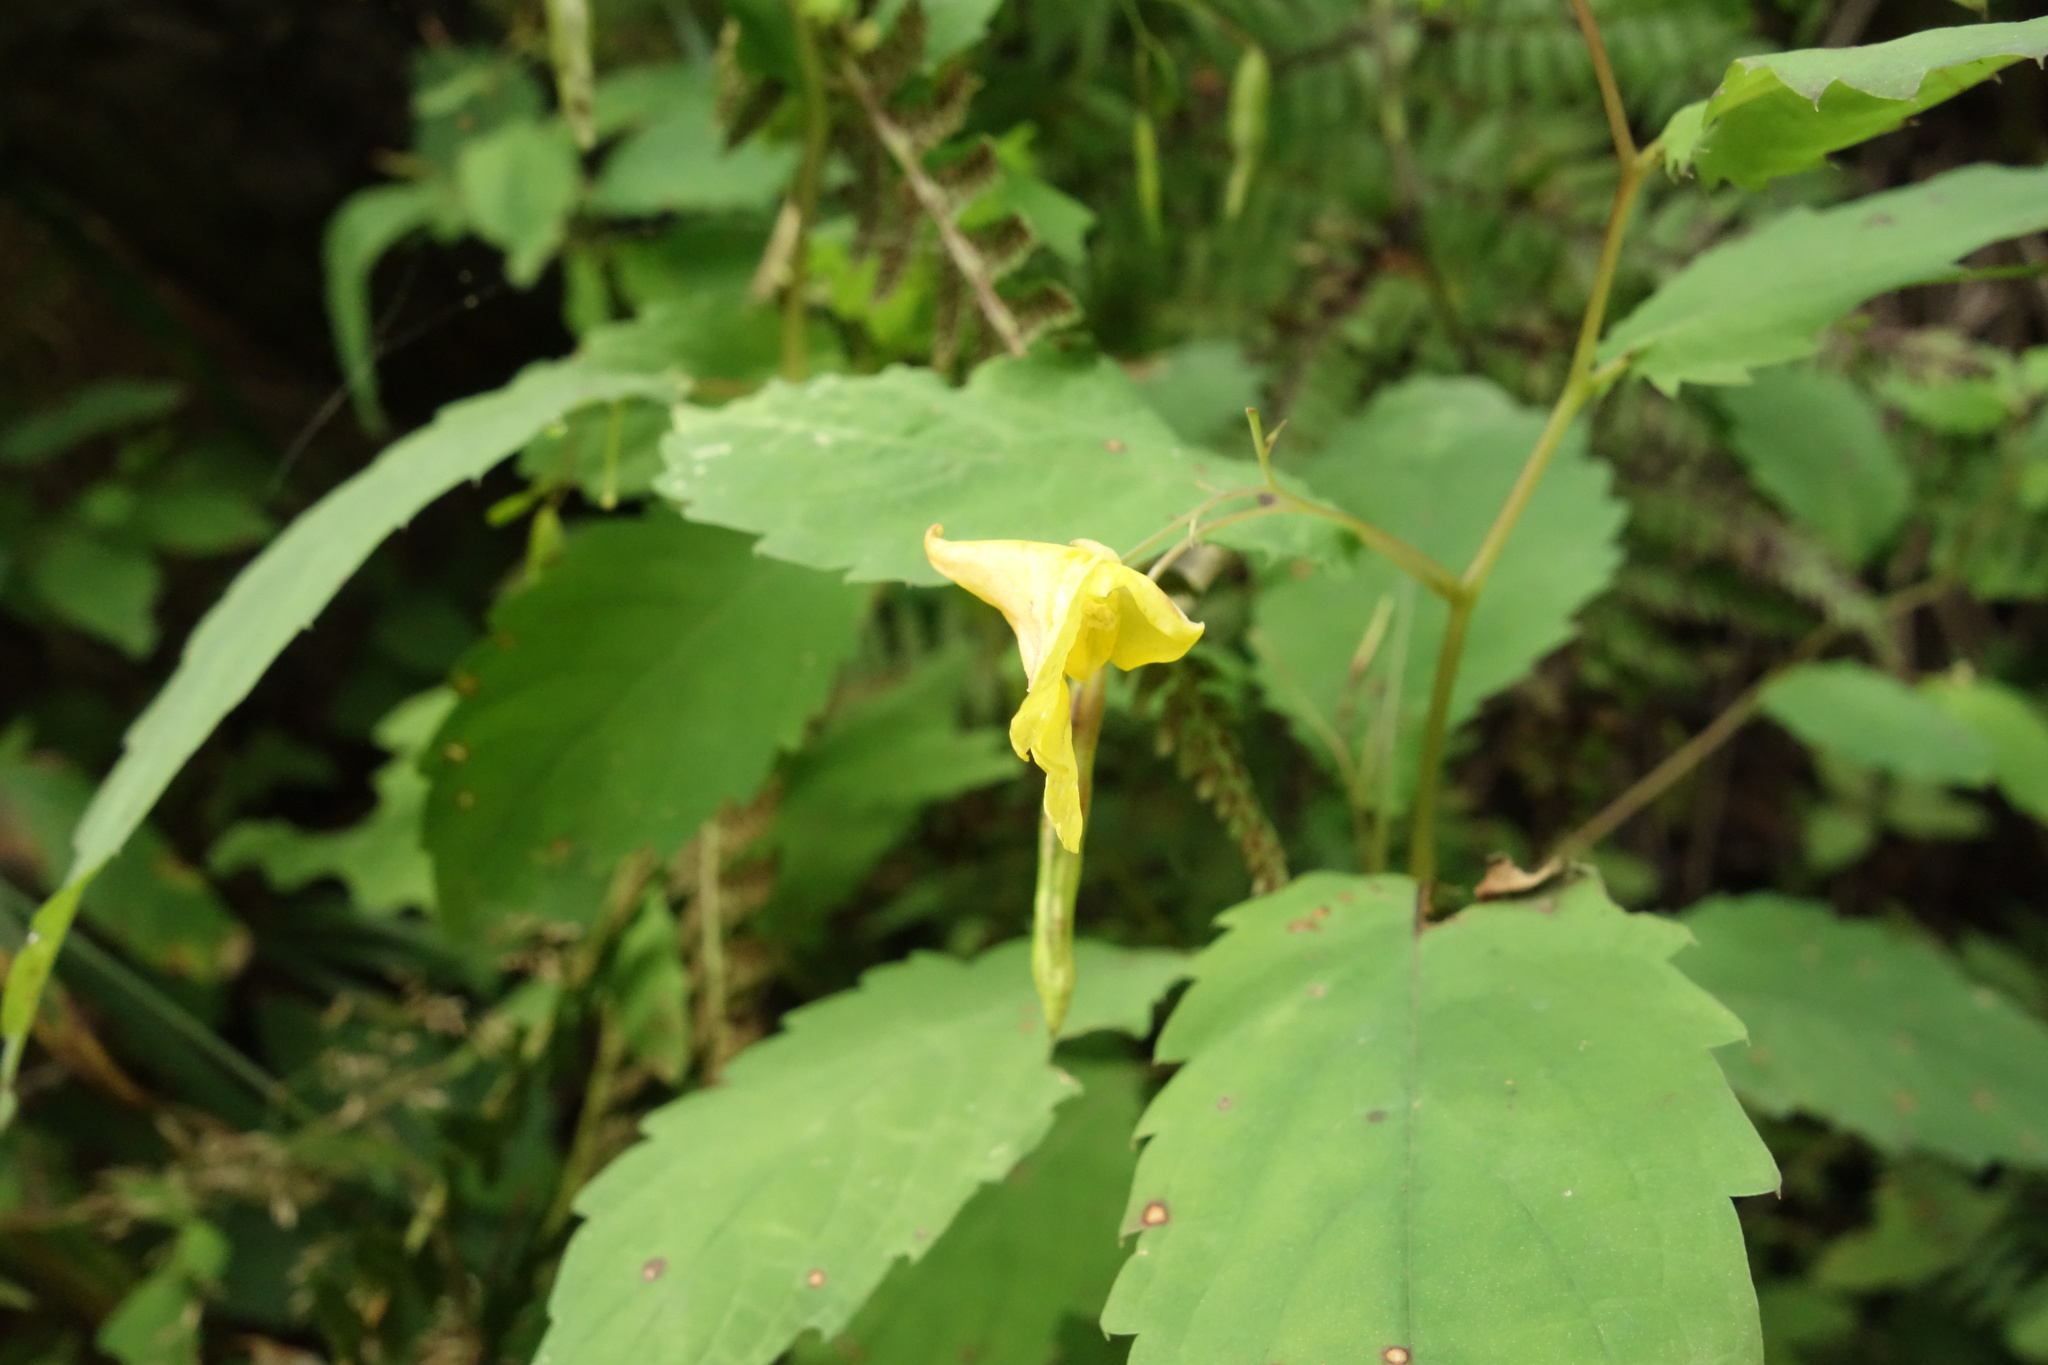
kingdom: Plantae
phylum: Tracheophyta
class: Magnoliopsida
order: Ericales
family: Balsaminaceae
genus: Impatiens
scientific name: Impatiens noli-tangere
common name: Touch-me-not balsam
